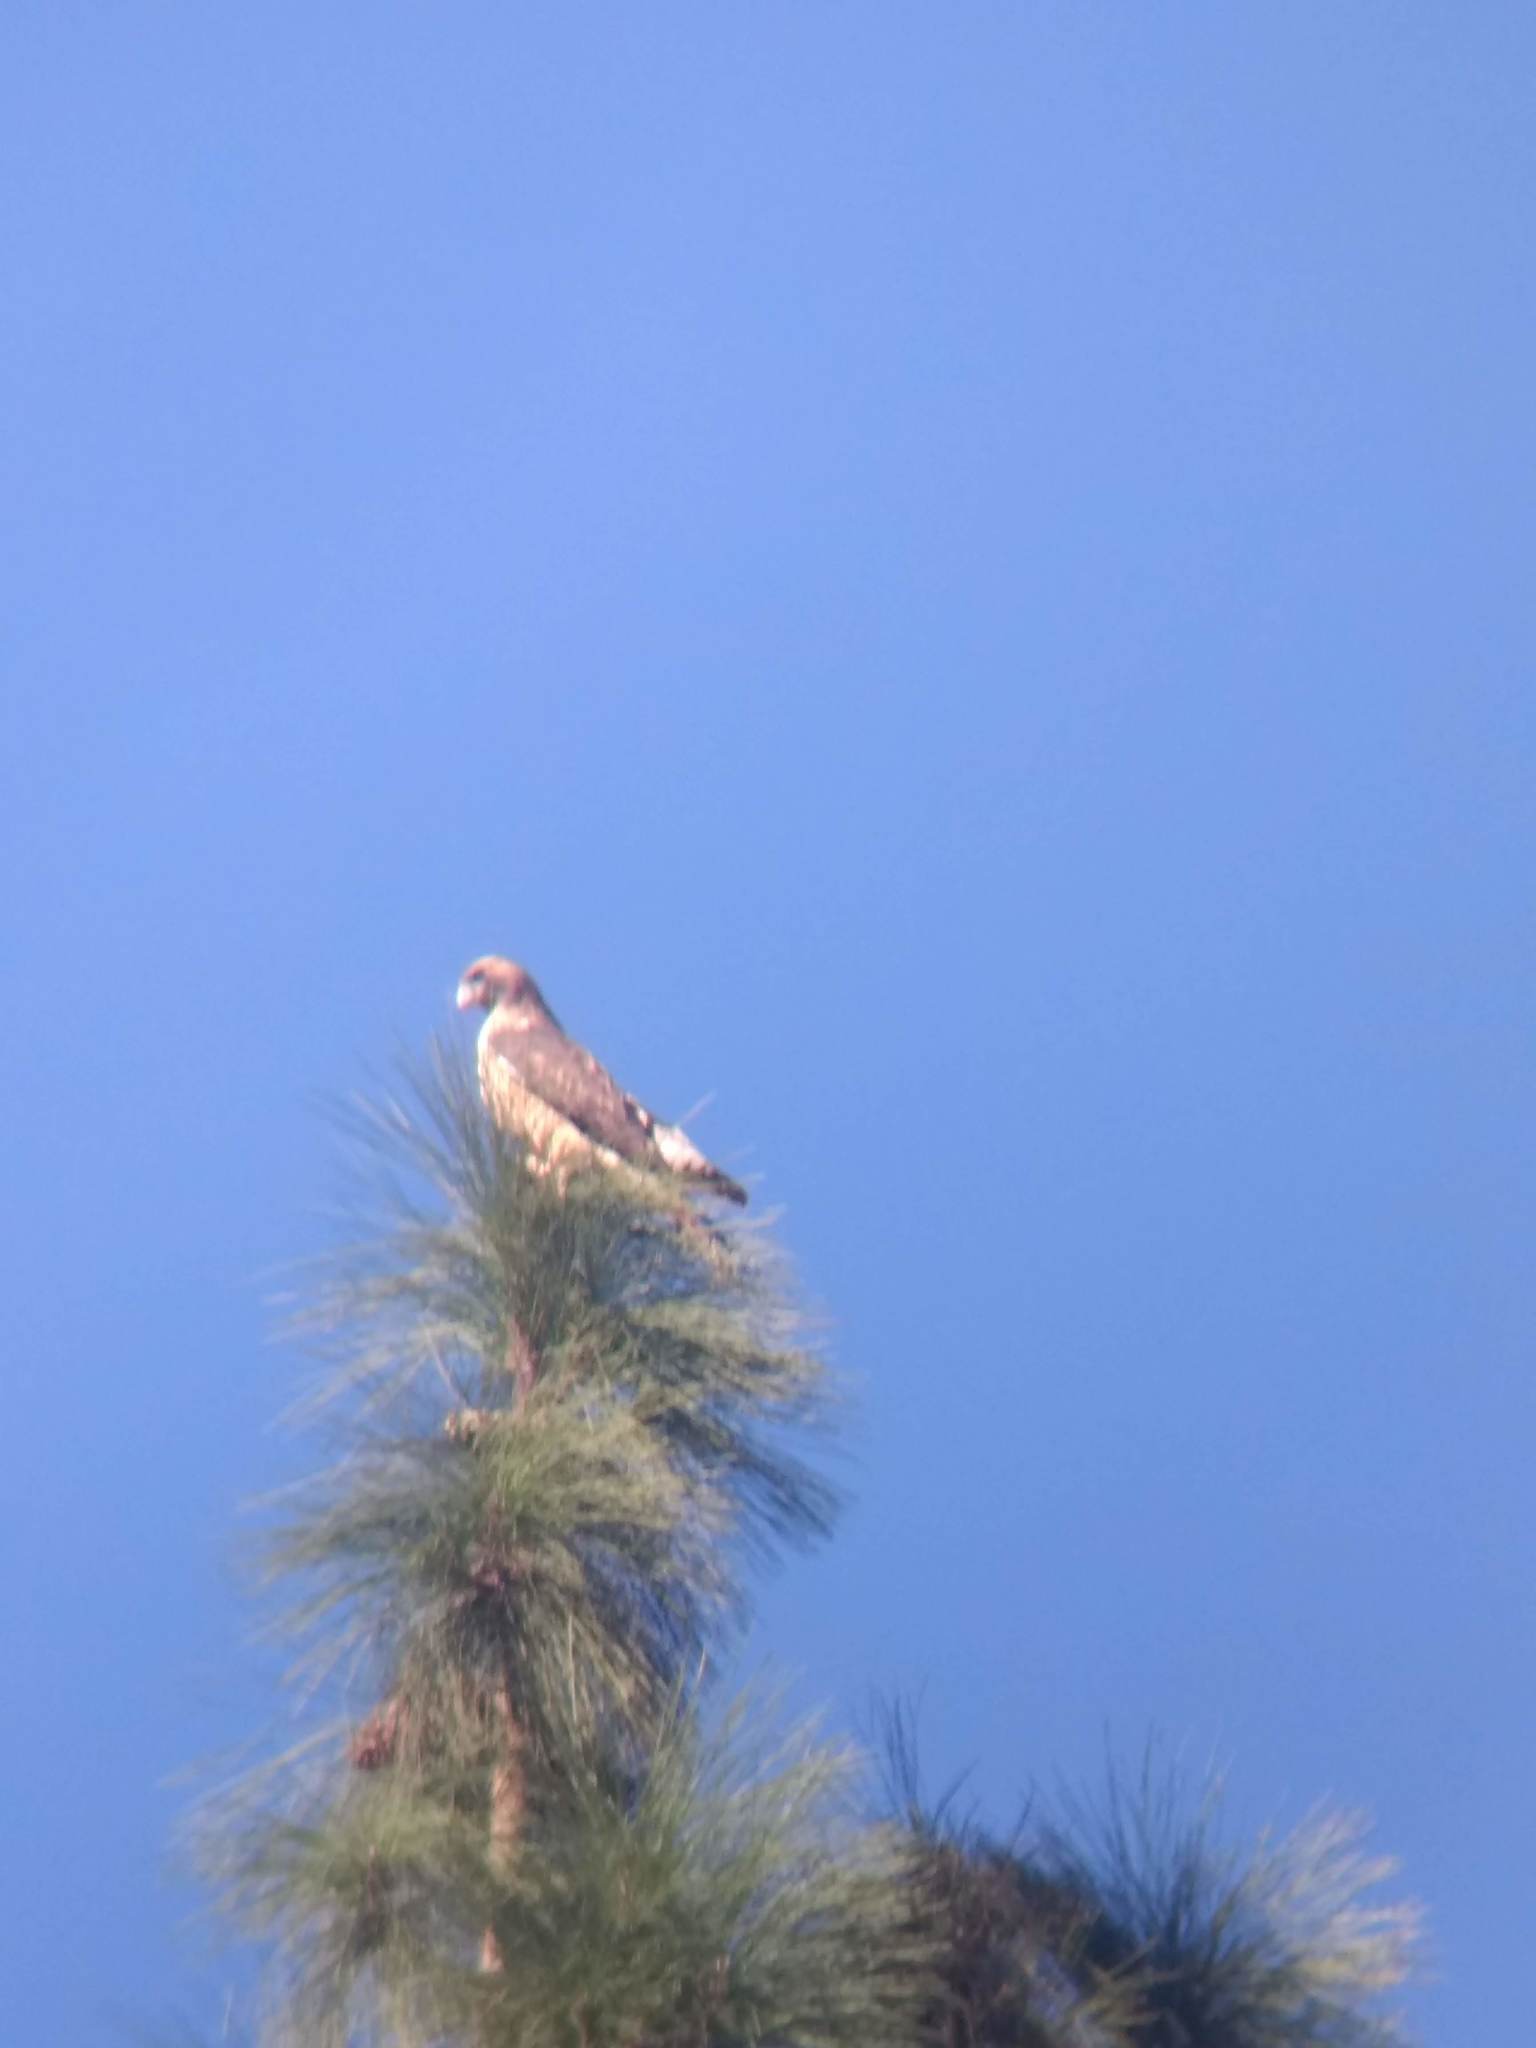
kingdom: Animalia
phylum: Chordata
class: Aves
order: Accipitriformes
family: Accipitridae
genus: Buteo
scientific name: Buteo jamaicensis
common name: Red-tailed hawk
